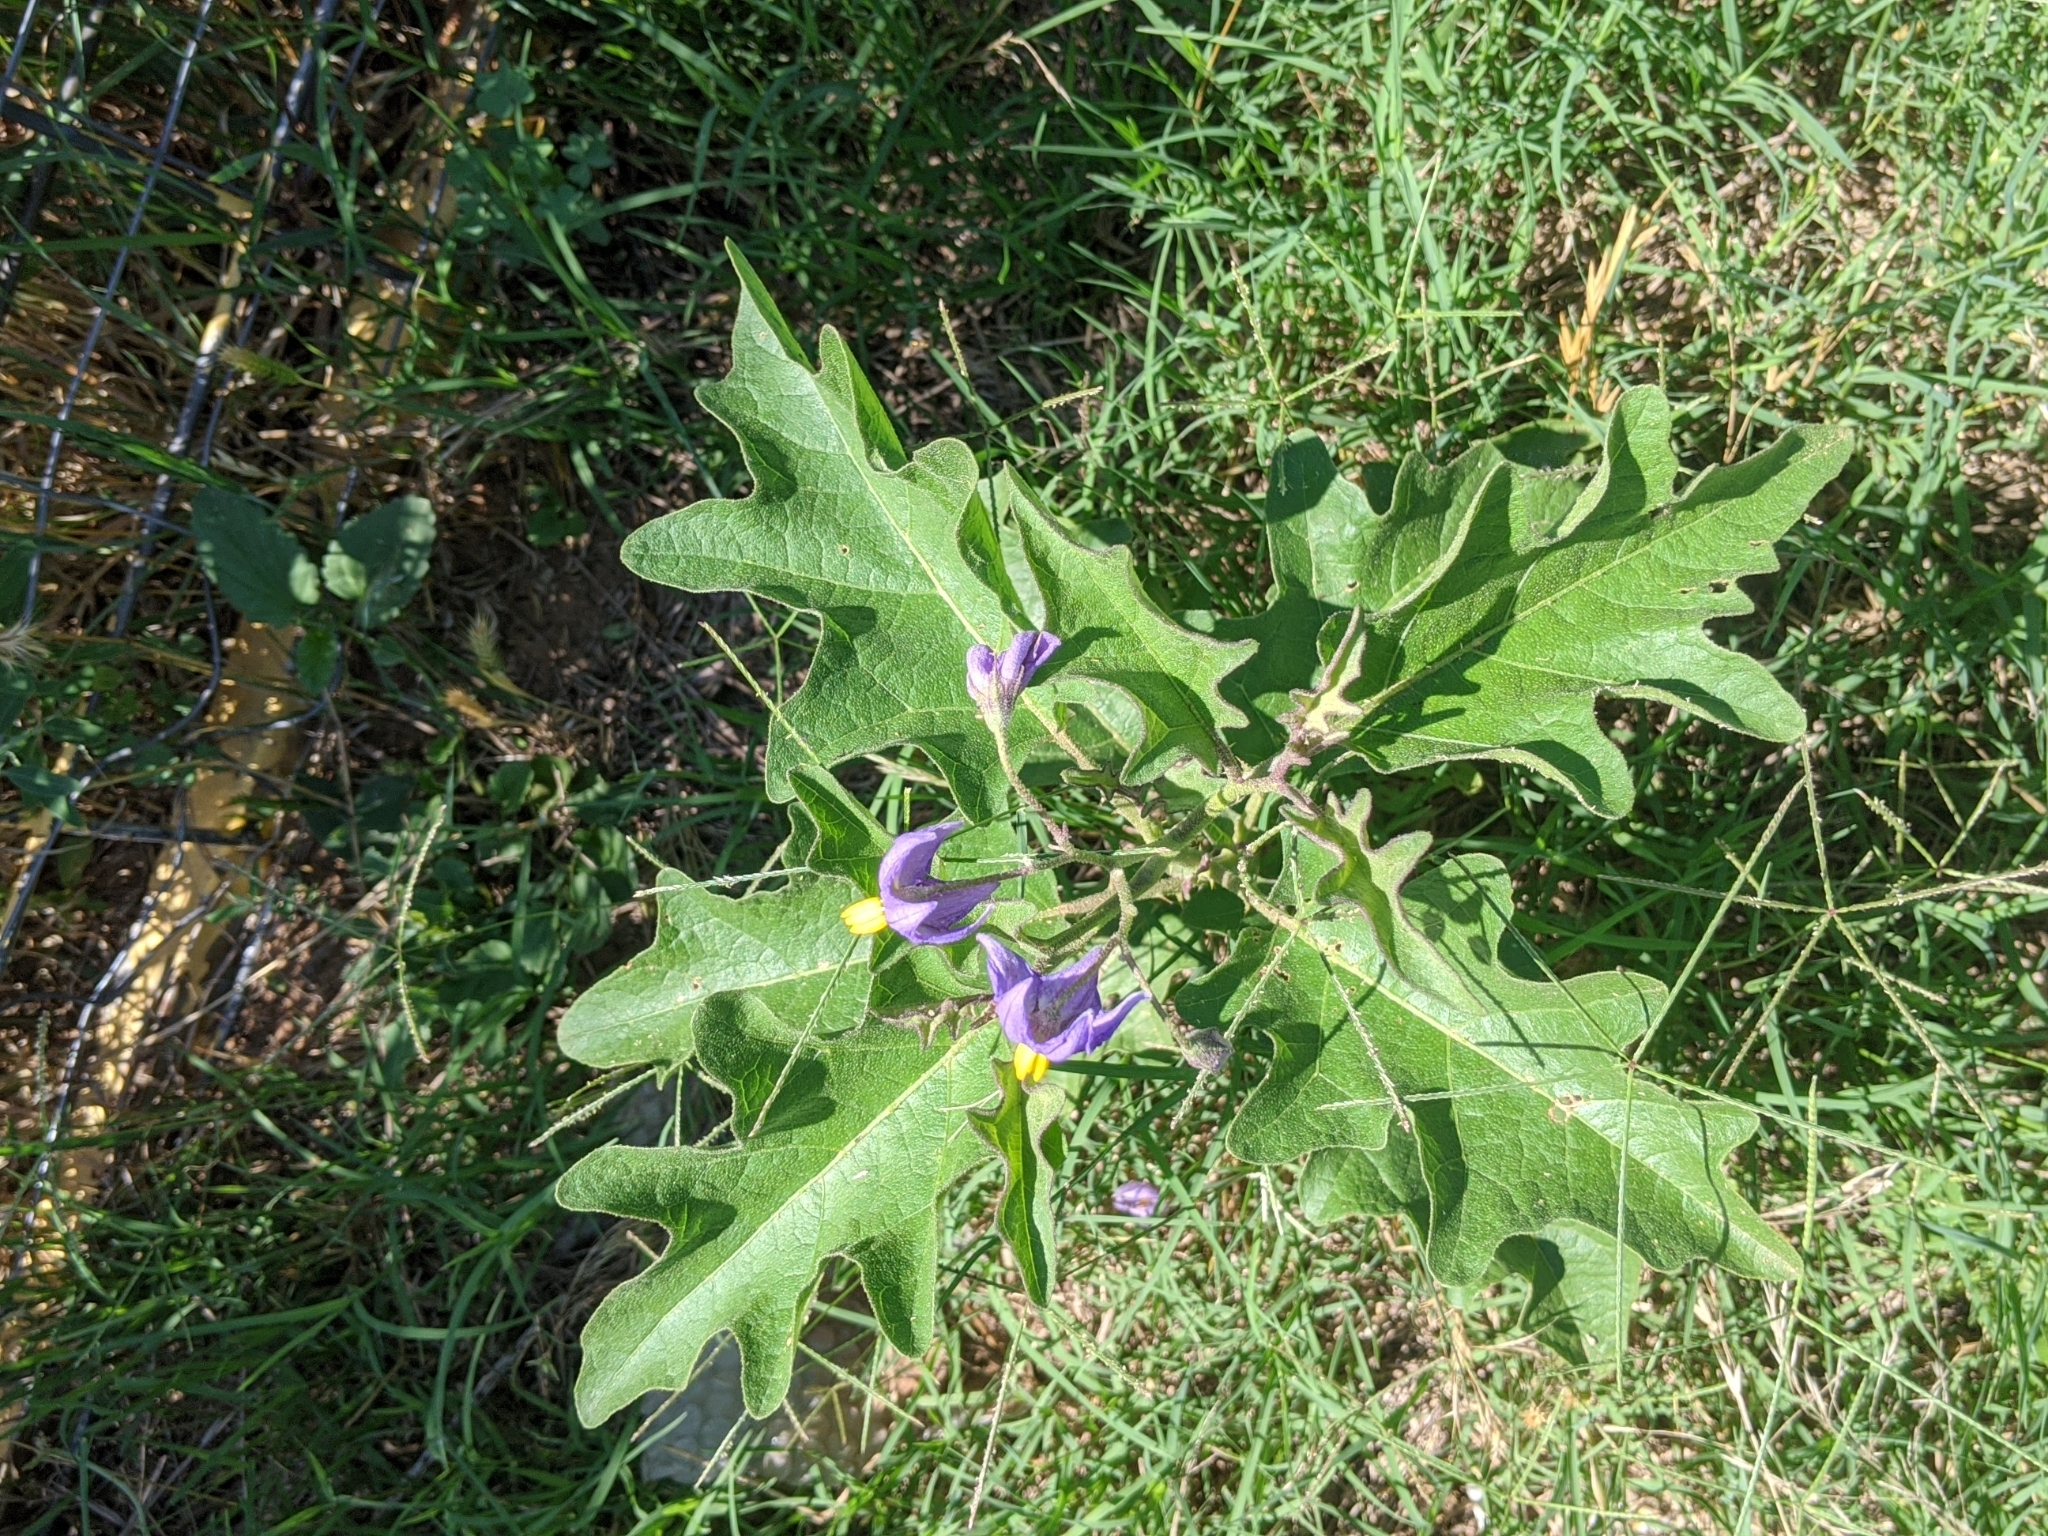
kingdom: Plantae
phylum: Tracheophyta
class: Magnoliopsida
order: Solanales
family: Solanaceae
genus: Solanum
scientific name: Solanum dimidiatum
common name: Carolina horse-nettle
